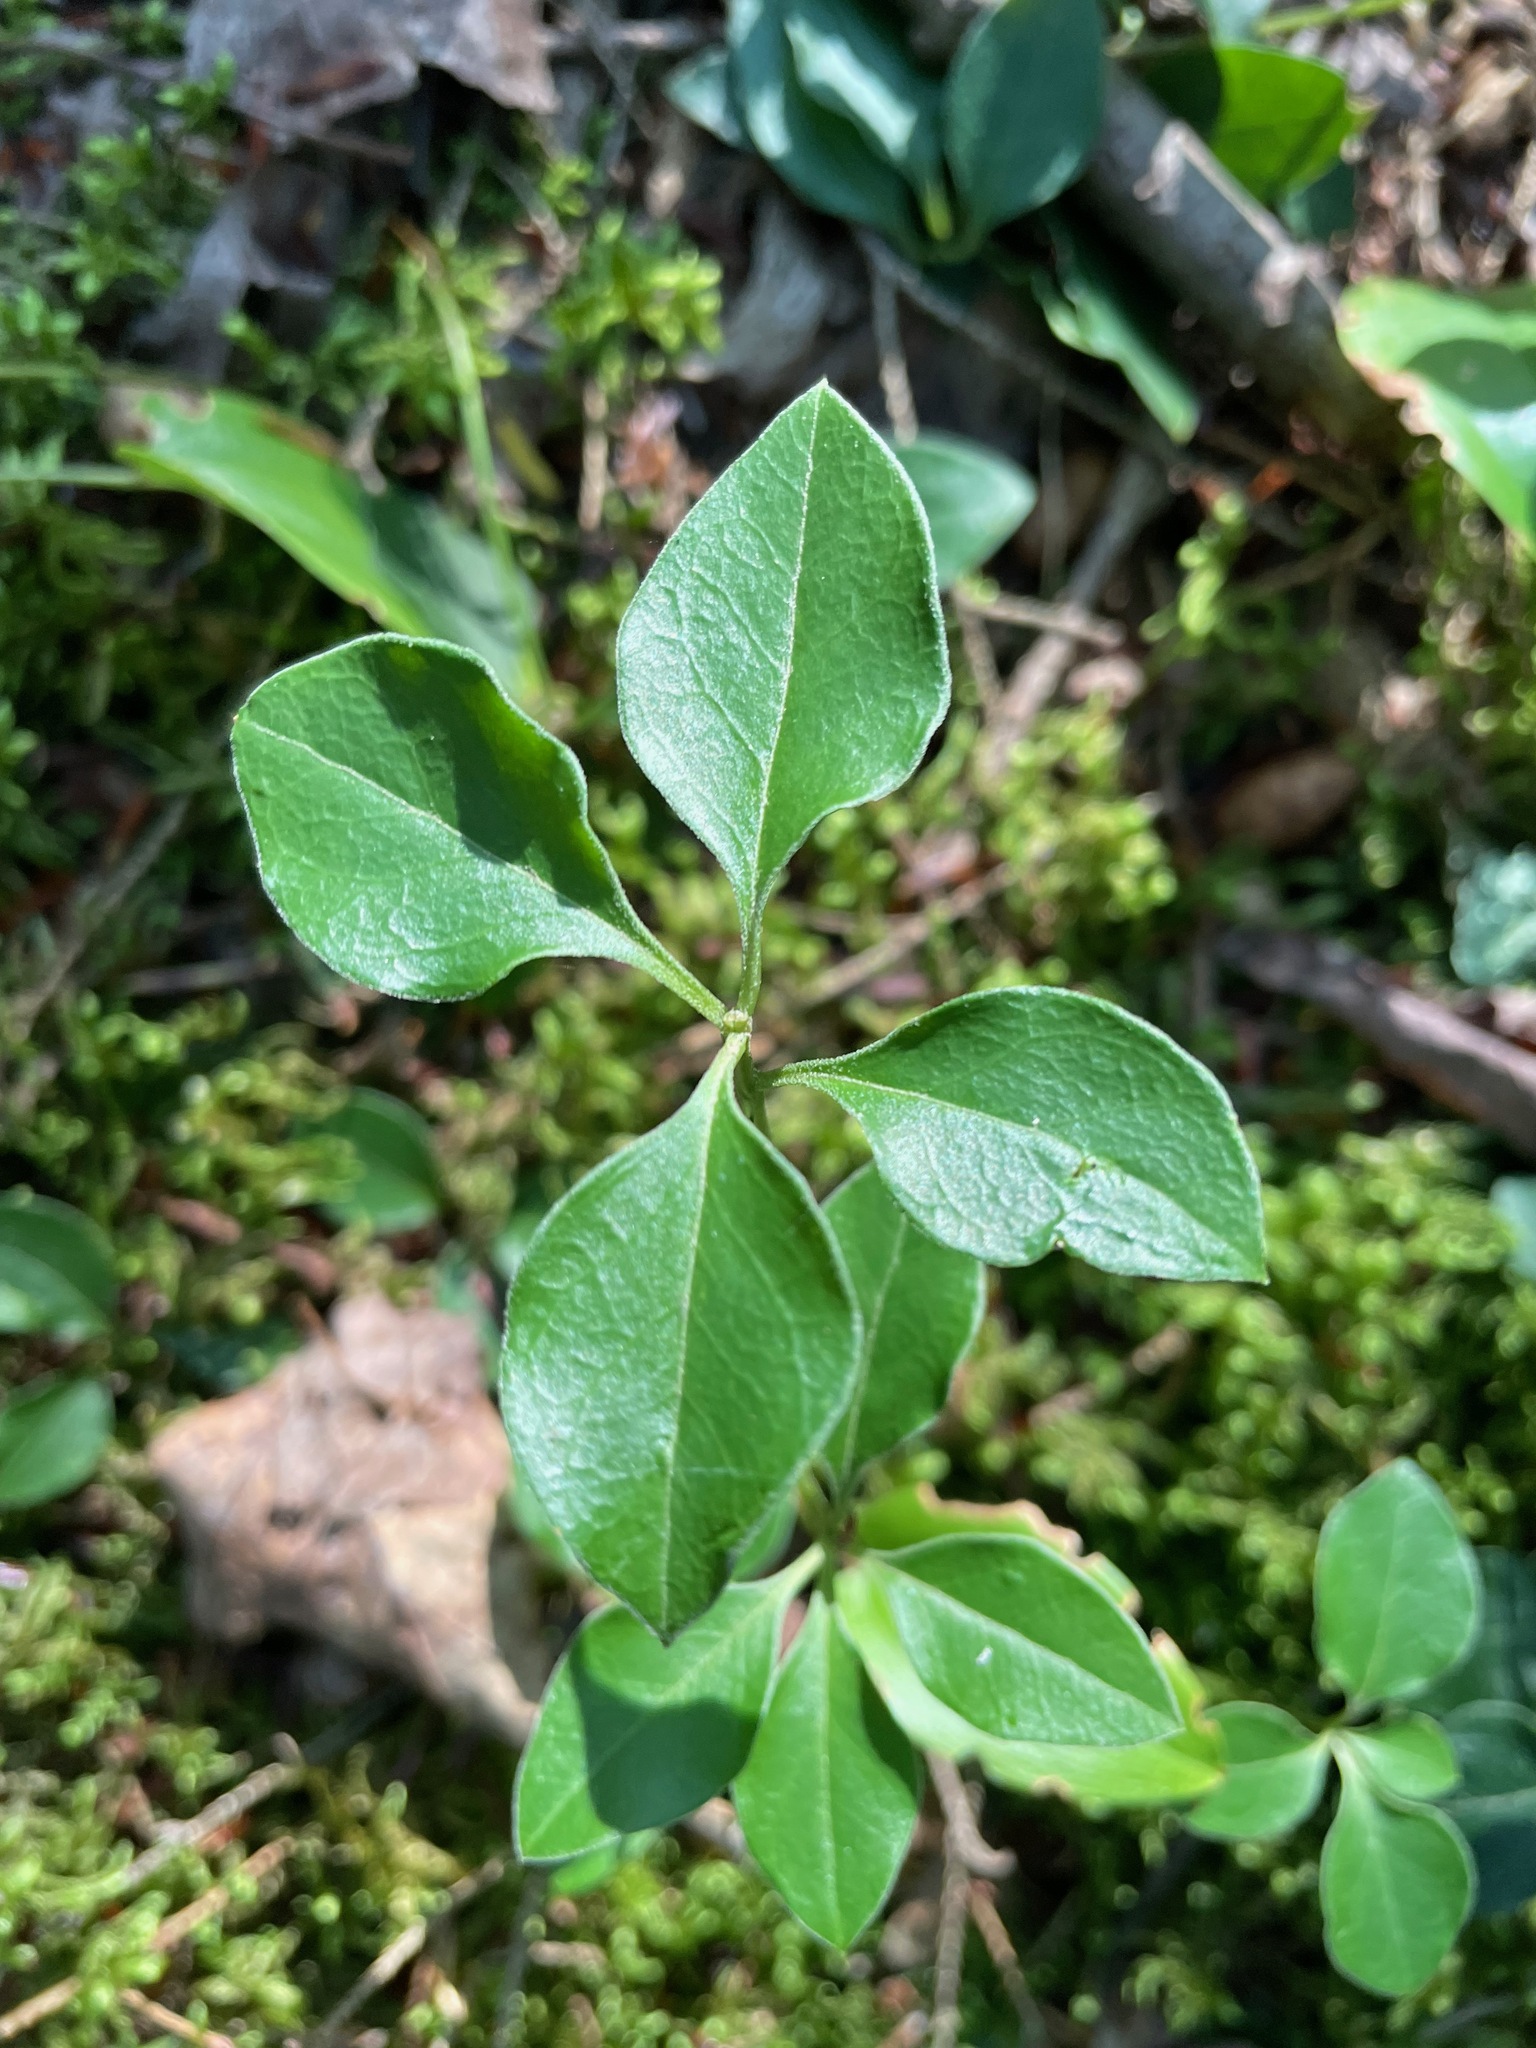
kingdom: Plantae
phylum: Tracheophyta
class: Magnoliopsida
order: Fabales
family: Polygalaceae
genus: Polygaloides
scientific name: Polygaloides paucifolia
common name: Bird-on-the-wing
